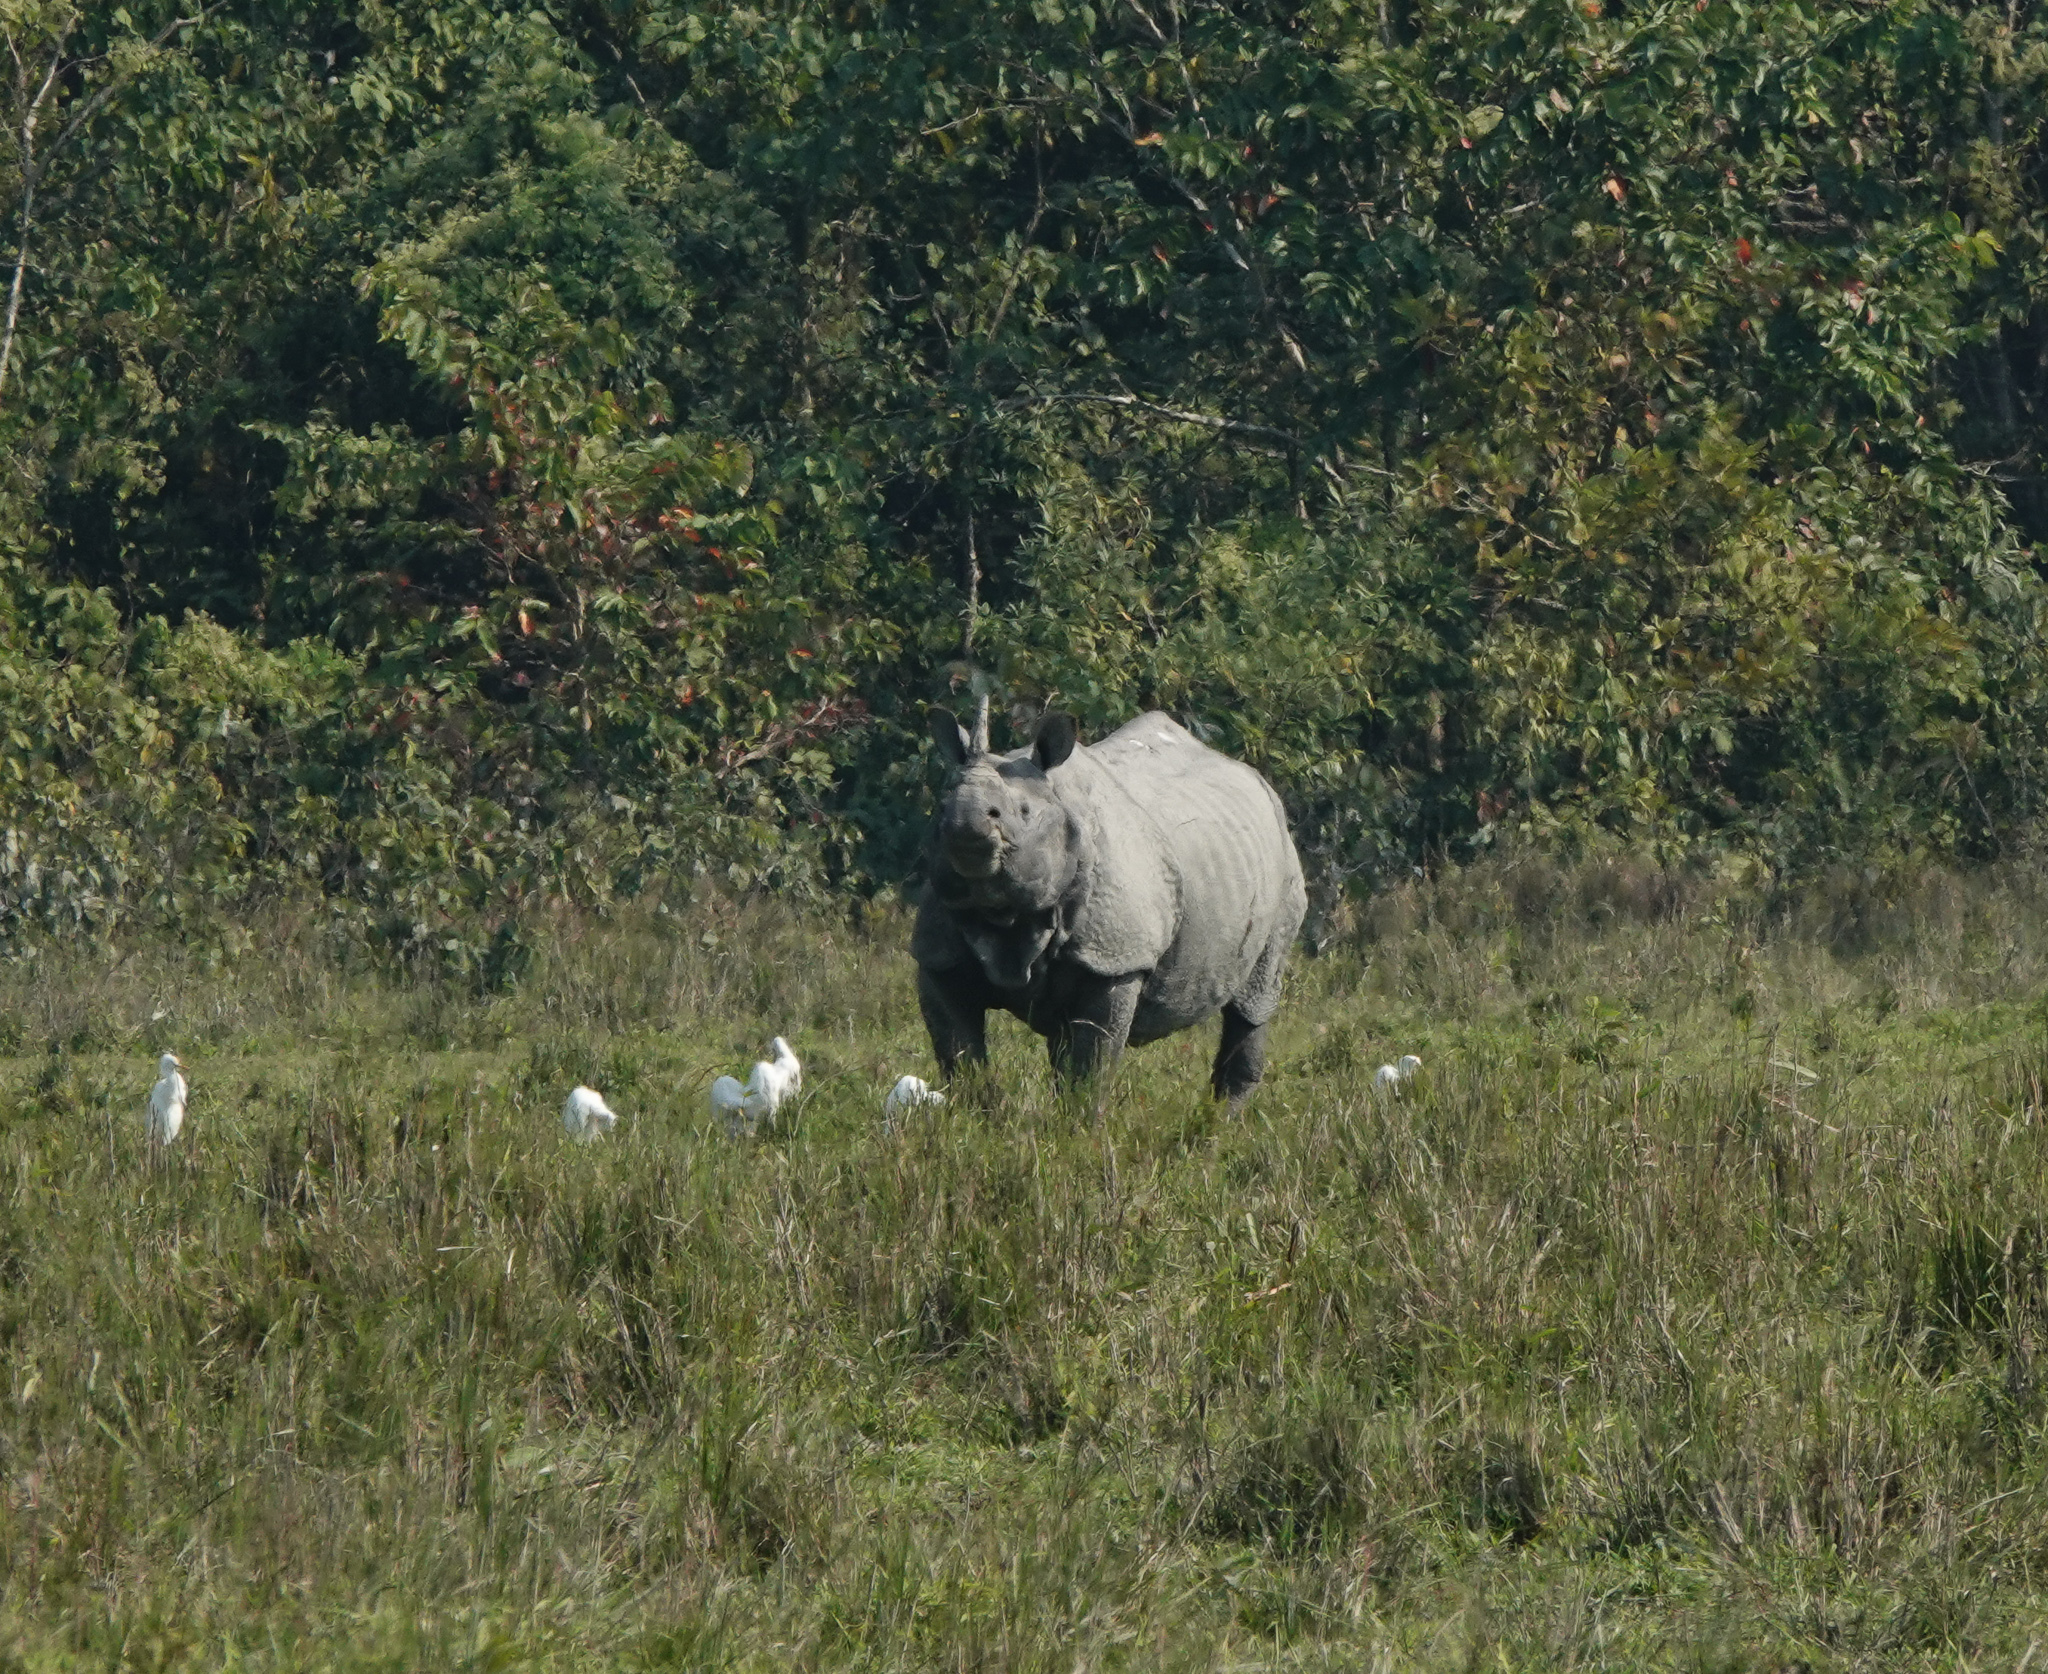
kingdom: Animalia
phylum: Chordata
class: Mammalia
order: Perissodactyla
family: Rhinocerotidae
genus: Rhinoceros
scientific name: Rhinoceros unicornis
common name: Indian rhinoceros
